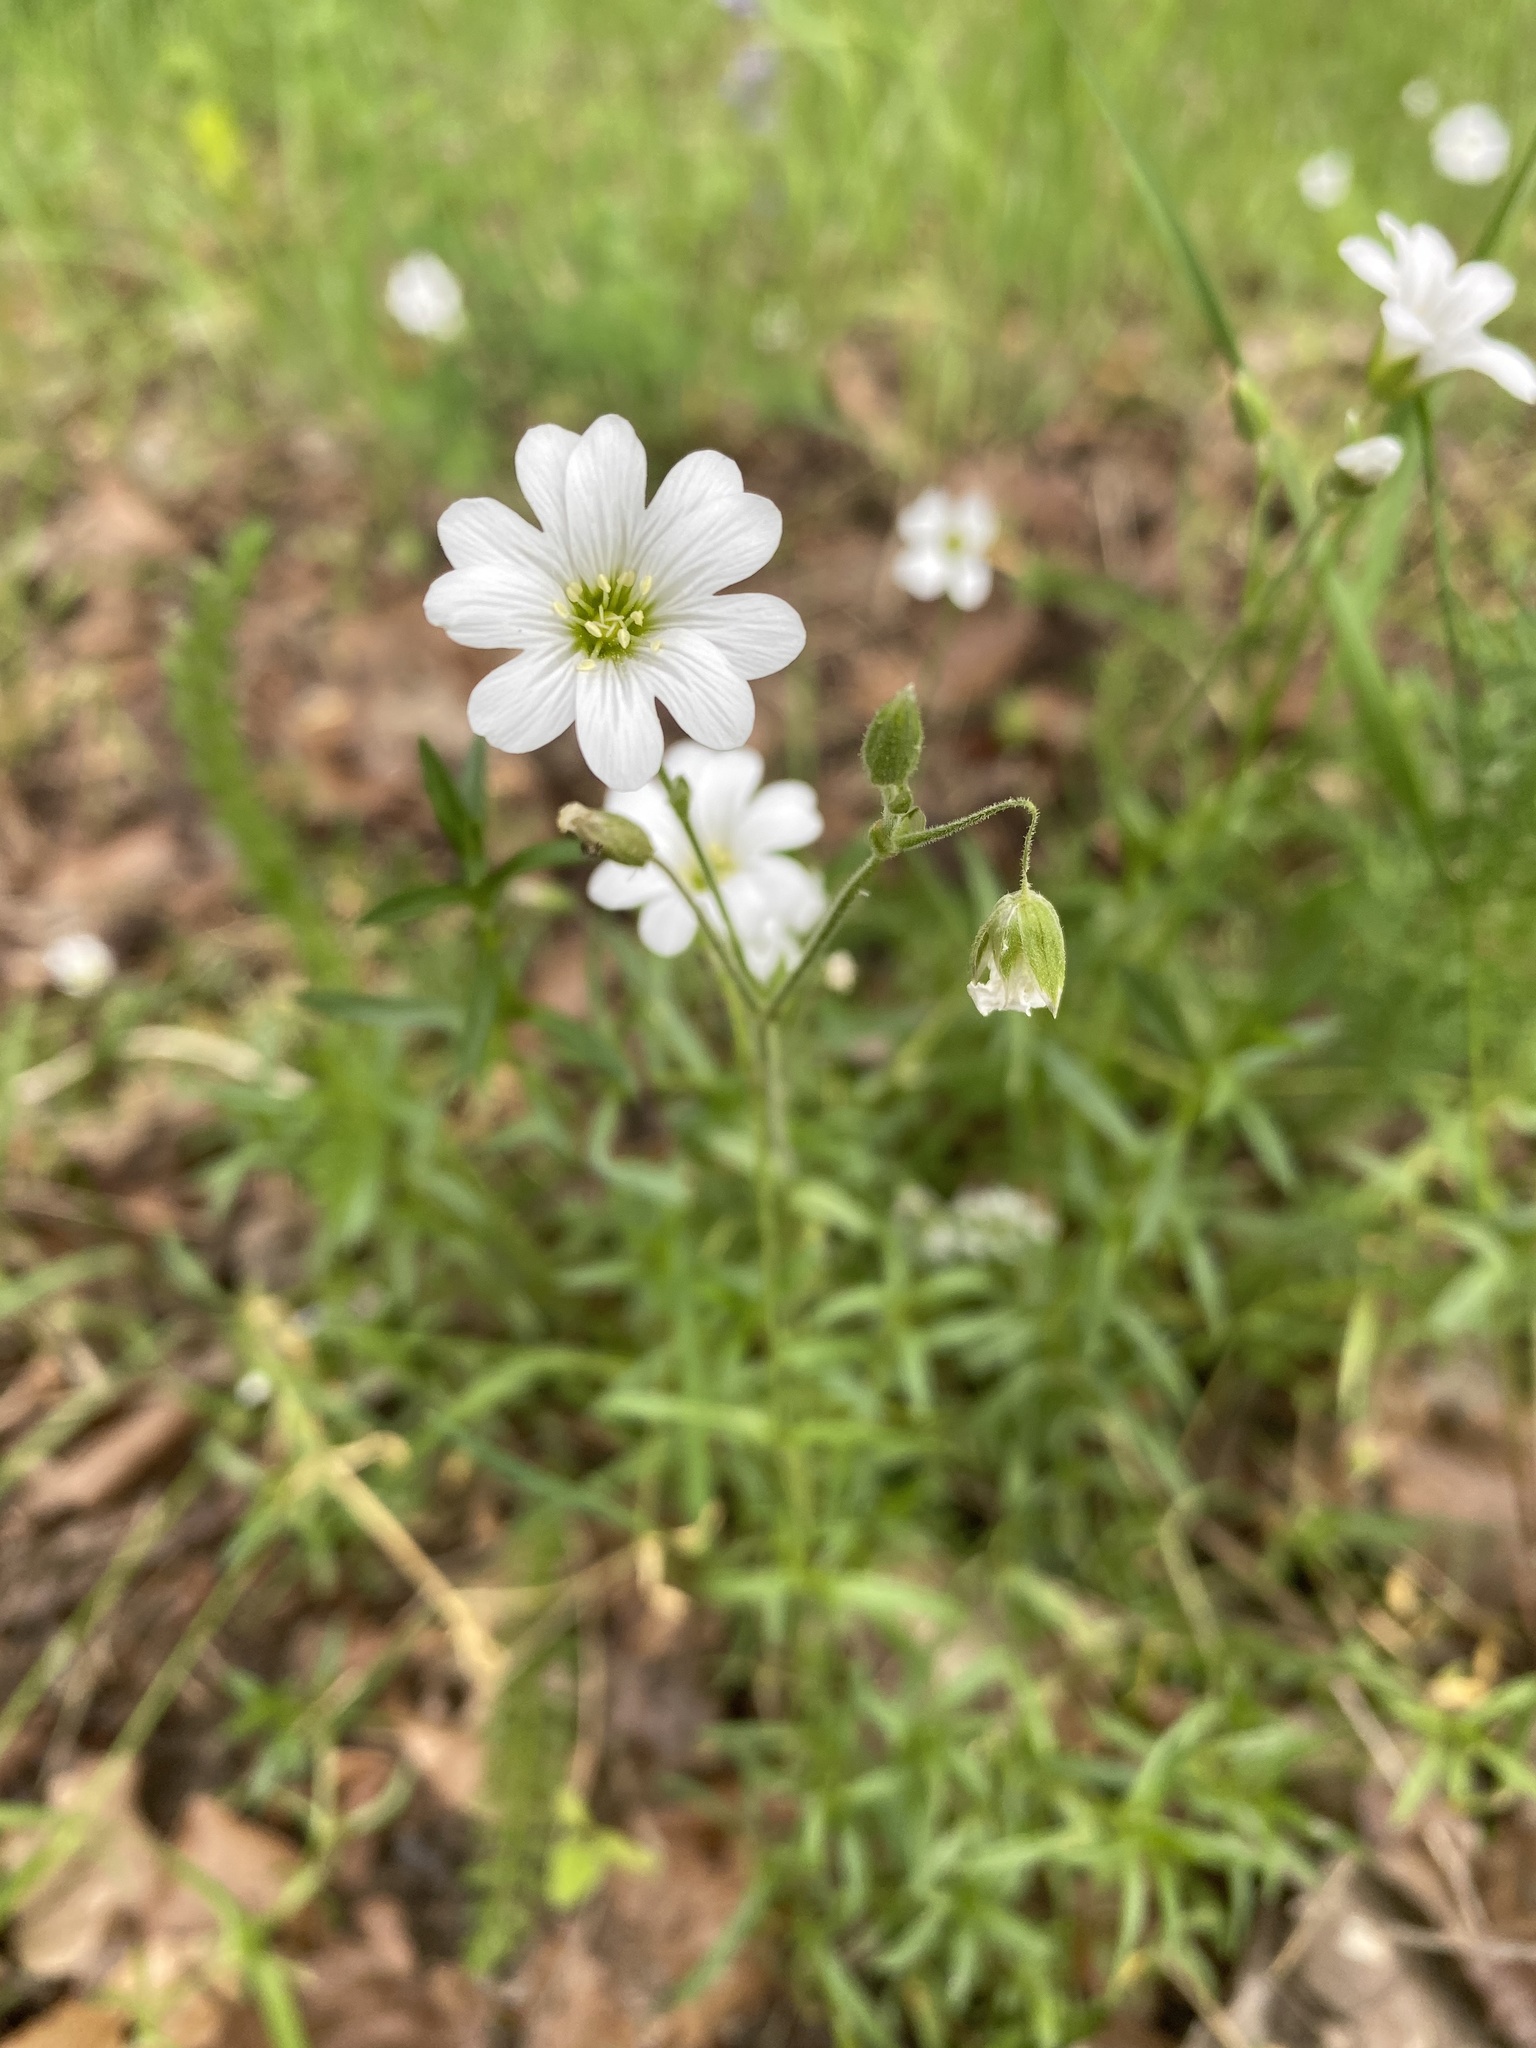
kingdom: Plantae
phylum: Tracheophyta
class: Magnoliopsida
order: Caryophyllales
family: Caryophyllaceae
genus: Cerastium
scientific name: Cerastium arvense
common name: Field mouse-ear
